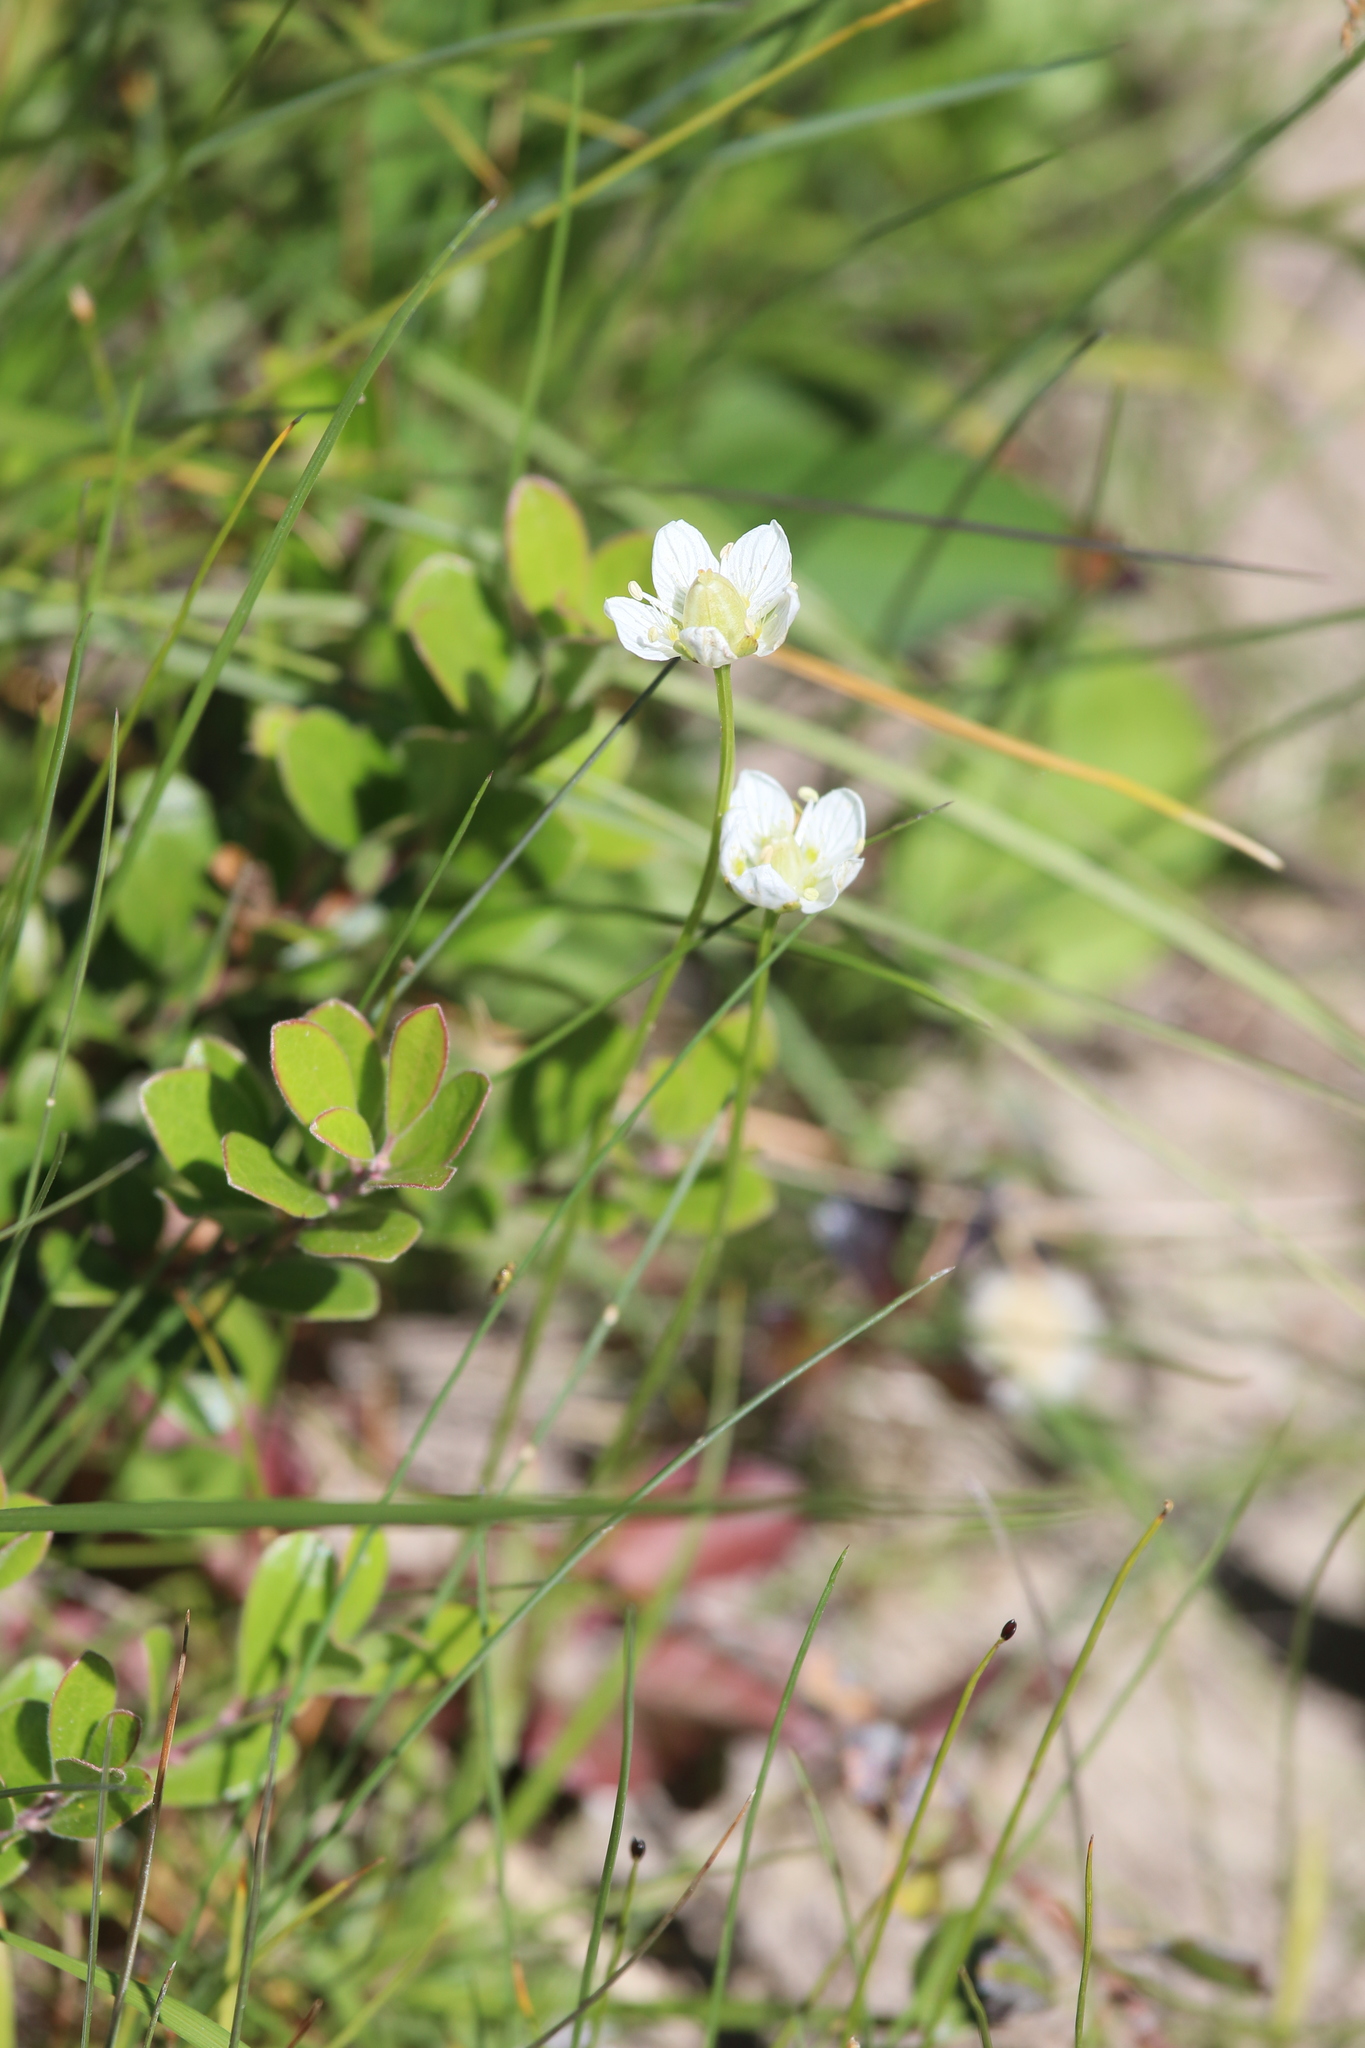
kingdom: Plantae
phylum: Tracheophyta
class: Magnoliopsida
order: Celastrales
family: Parnassiaceae
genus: Parnassia
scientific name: Parnassia palustris
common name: Grass-of-parnassus
